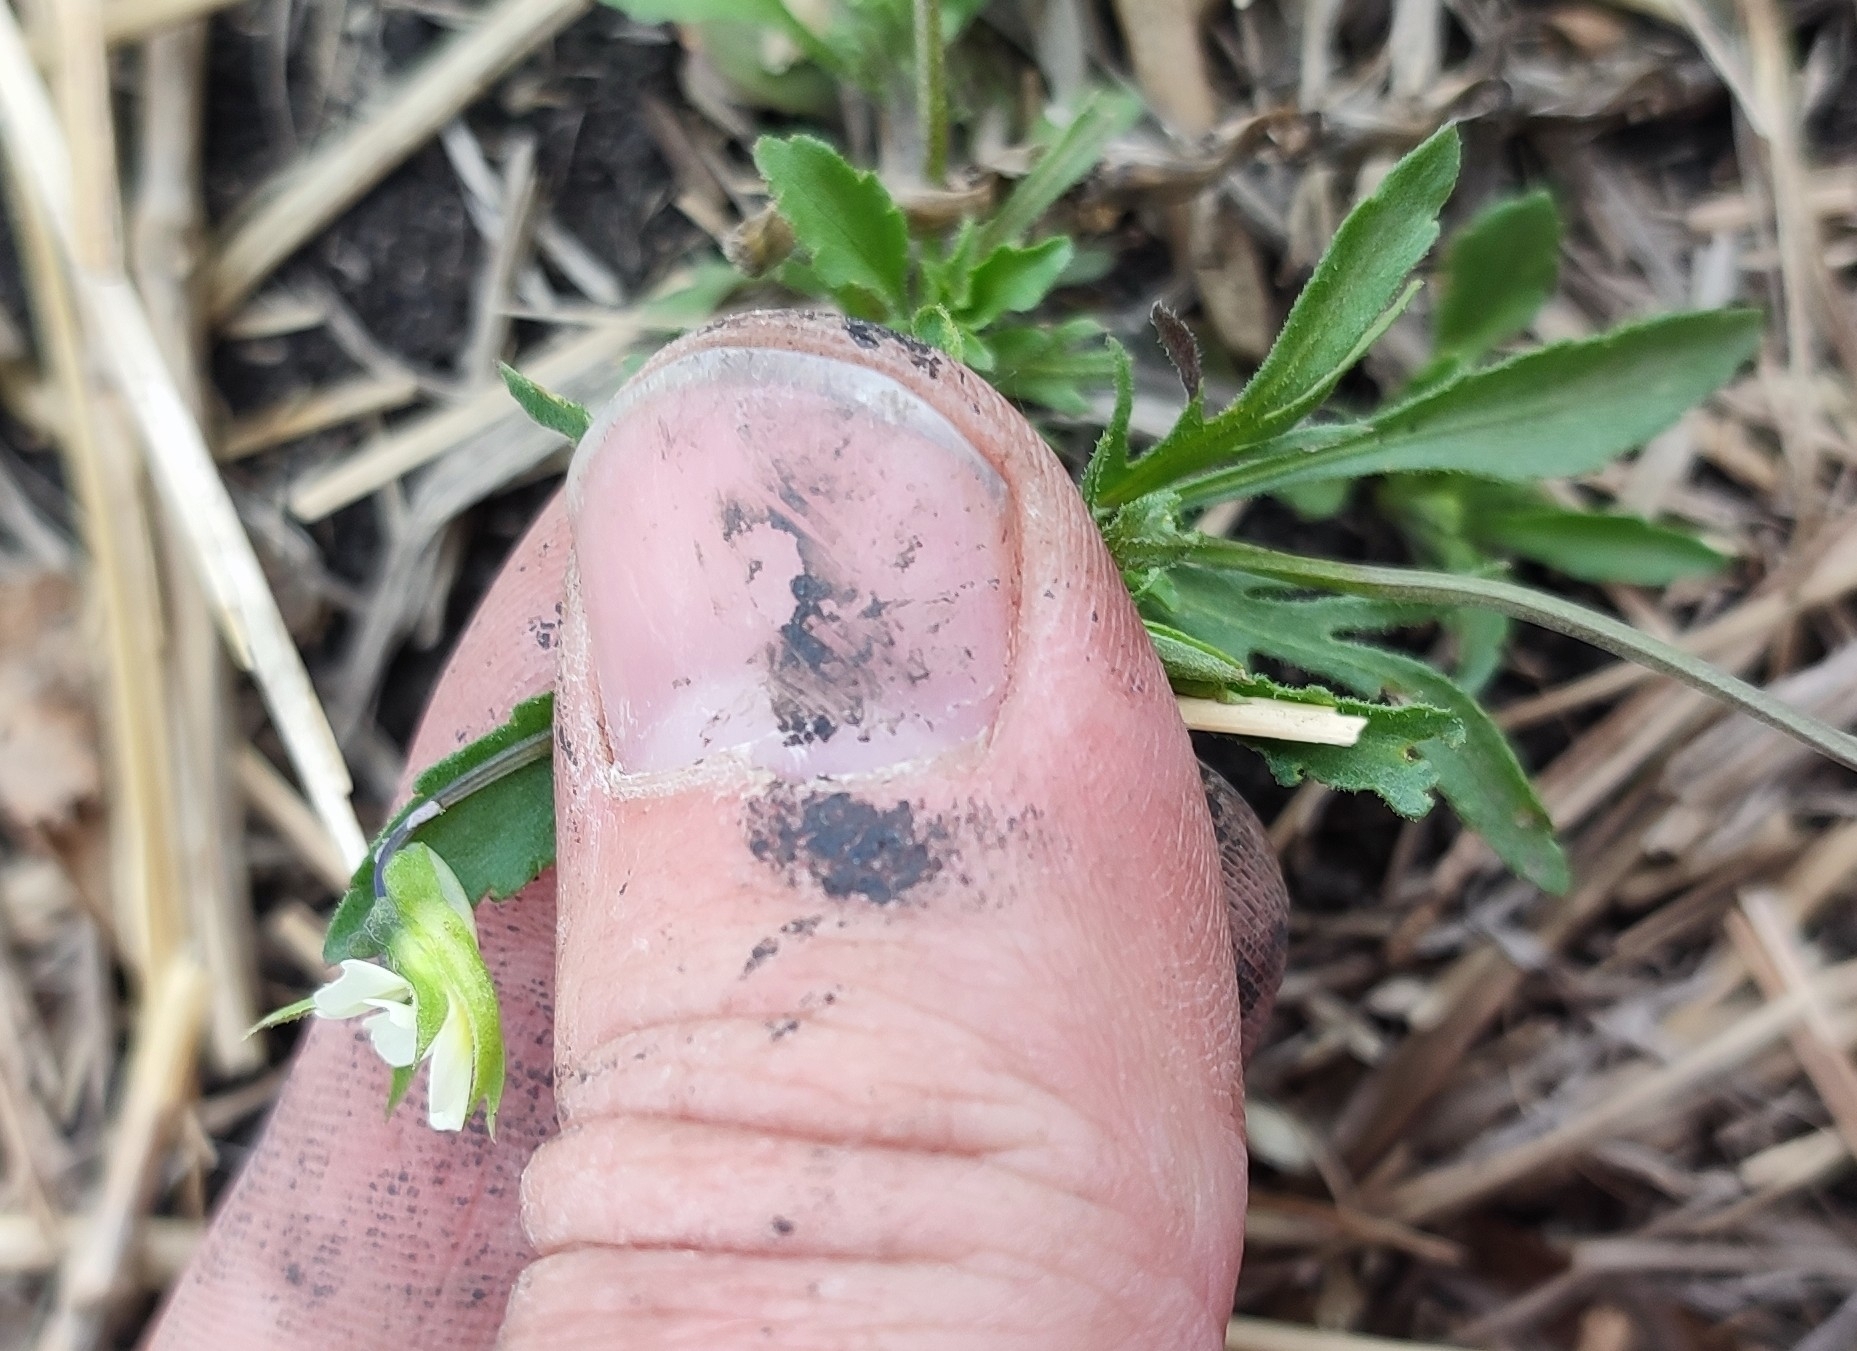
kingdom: Plantae
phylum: Tracheophyta
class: Magnoliopsida
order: Malpighiales
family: Violaceae
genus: Viola
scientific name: Viola arvensis
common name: Field pansy
